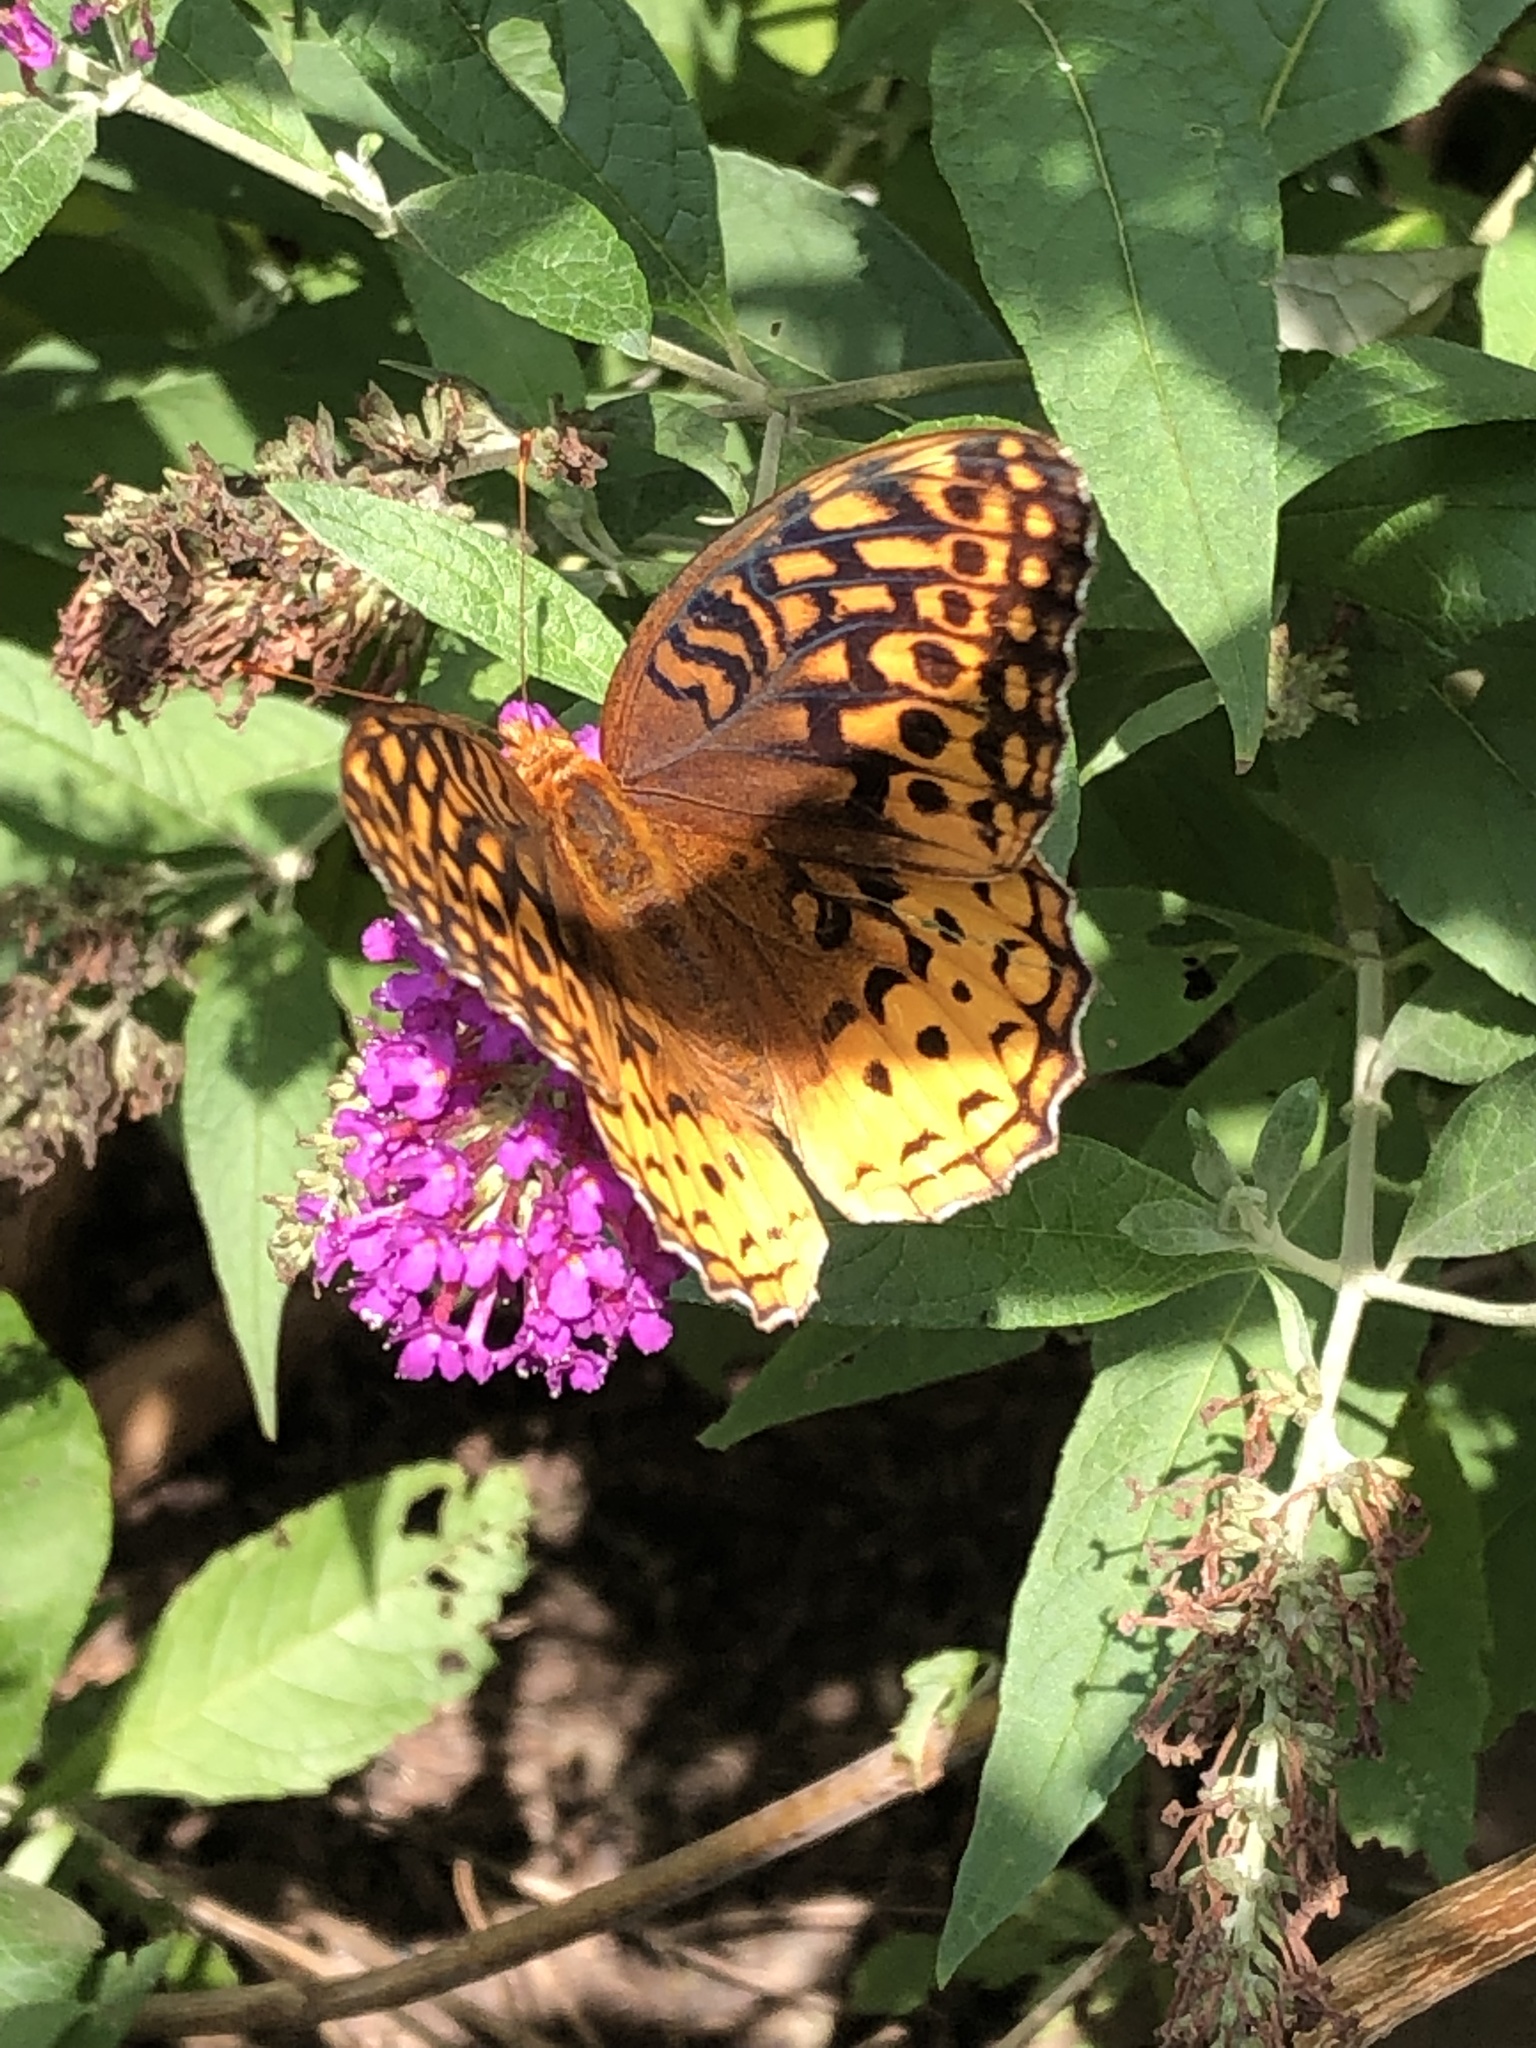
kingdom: Animalia
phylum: Arthropoda
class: Insecta
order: Lepidoptera
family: Nymphalidae
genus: Speyeria
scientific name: Speyeria cybele
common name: Great spangled fritillary
